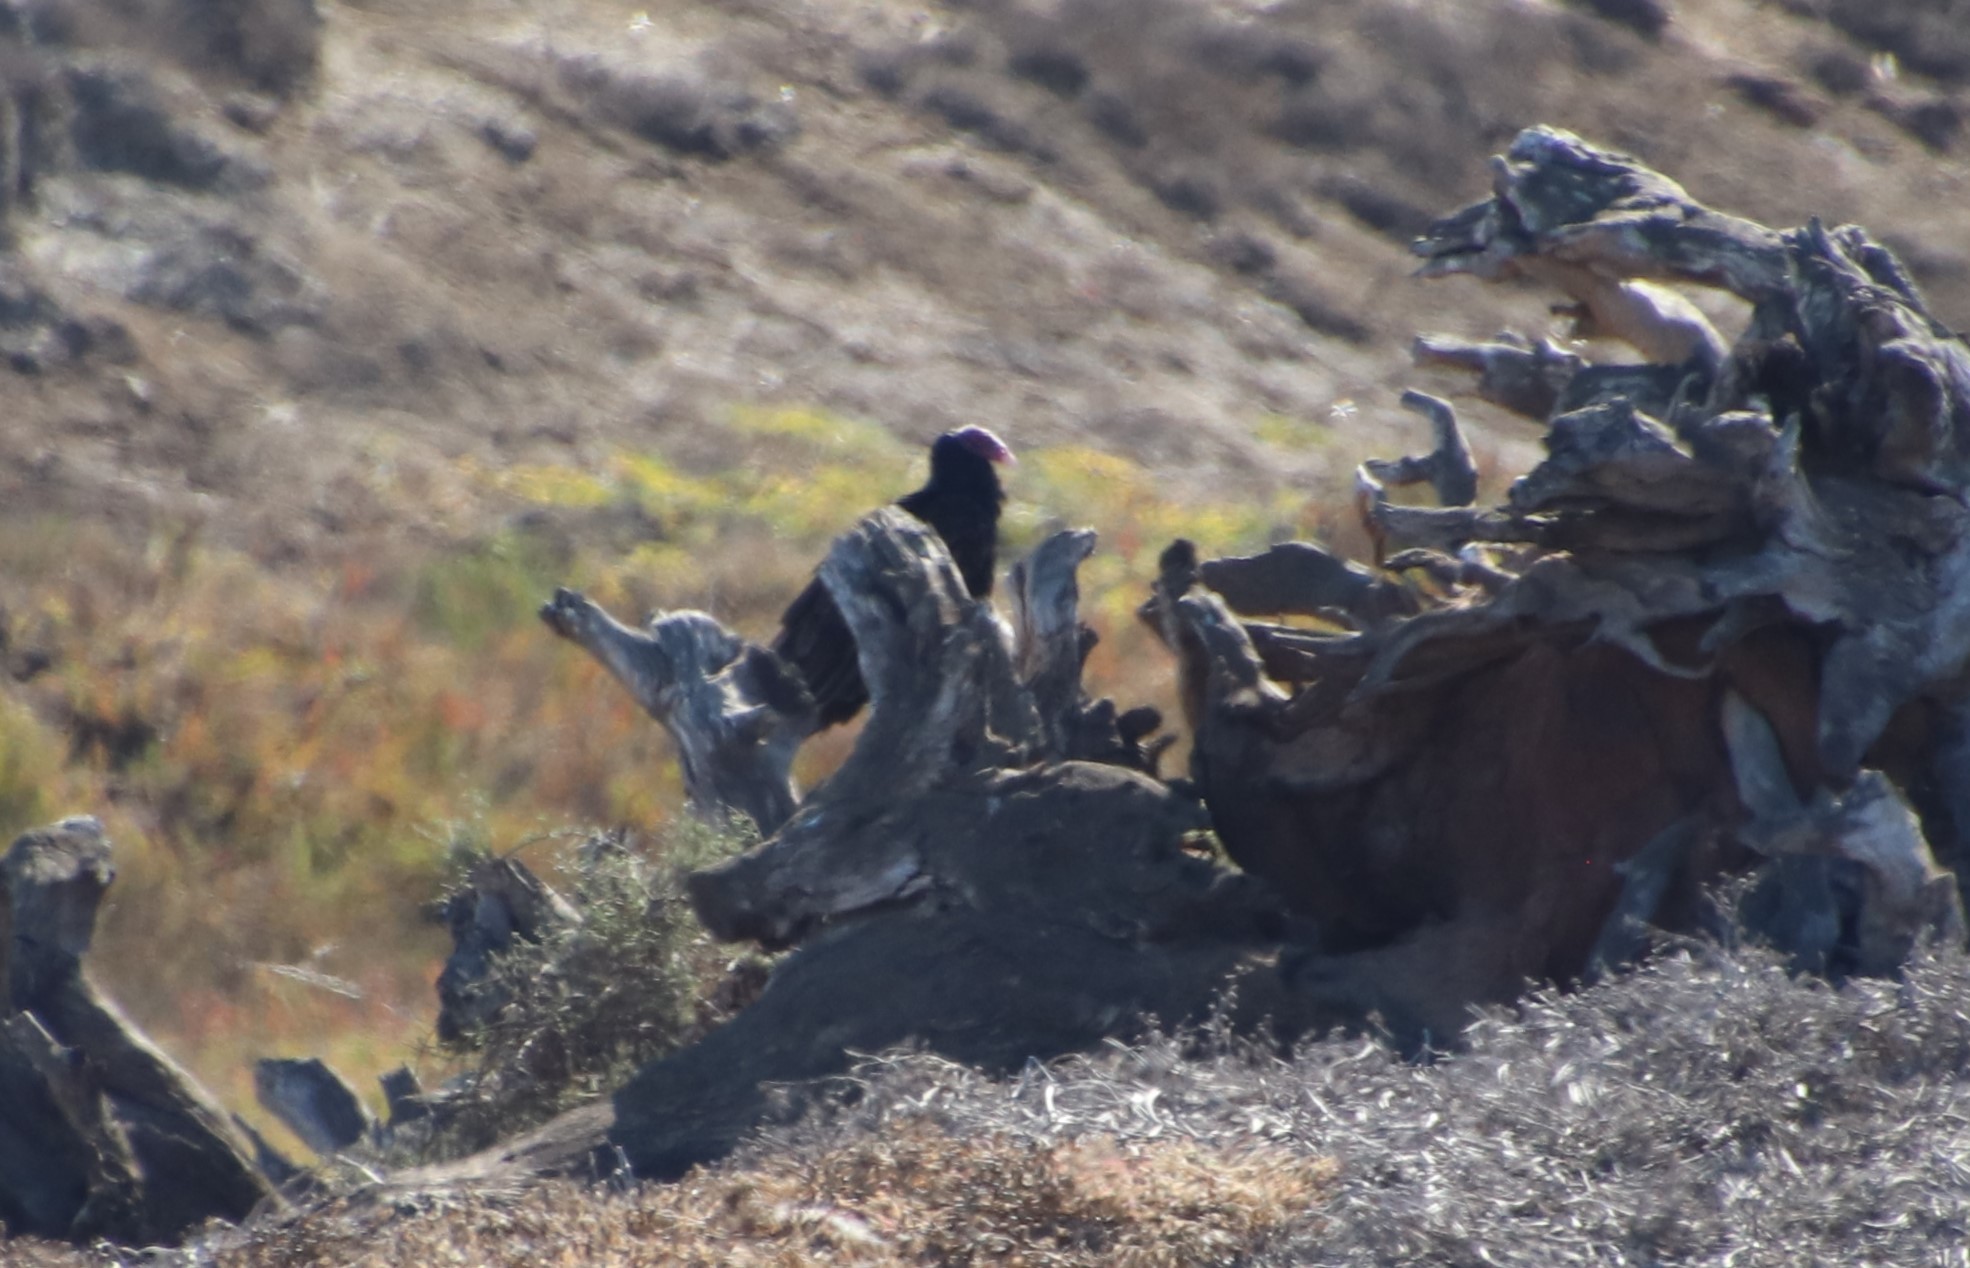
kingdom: Animalia
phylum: Chordata
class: Aves
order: Accipitriformes
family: Cathartidae
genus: Cathartes
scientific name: Cathartes aura
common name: Turkey vulture
